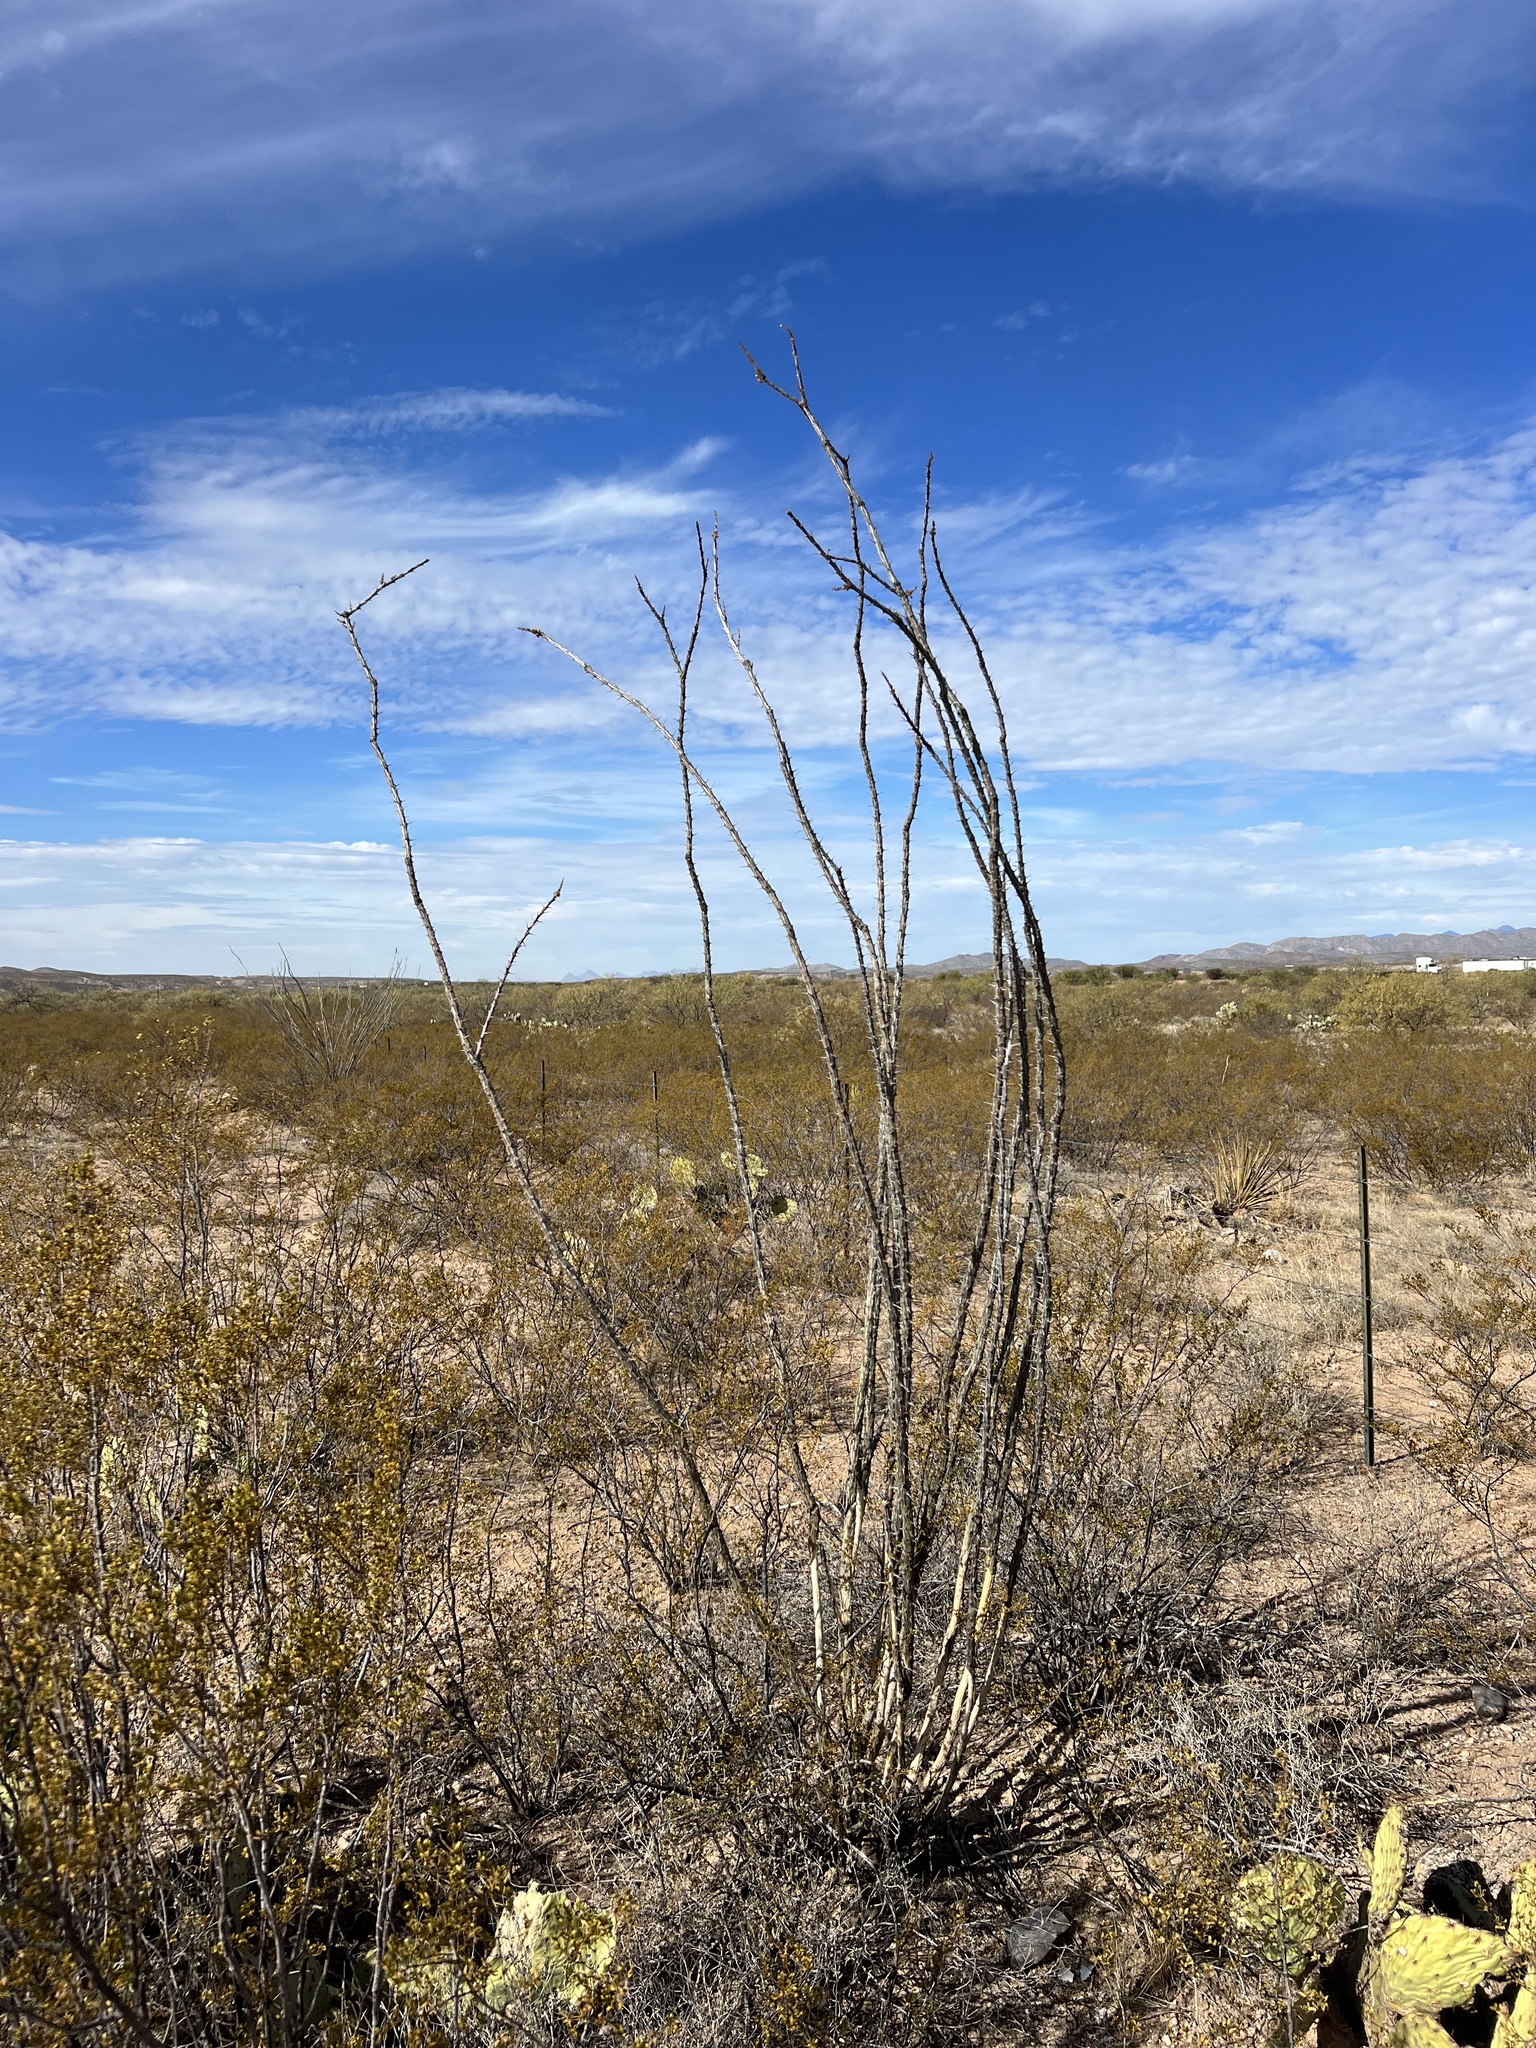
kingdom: Plantae
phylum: Tracheophyta
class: Magnoliopsida
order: Ericales
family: Fouquieriaceae
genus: Fouquieria
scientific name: Fouquieria splendens
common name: Vine-cactus
